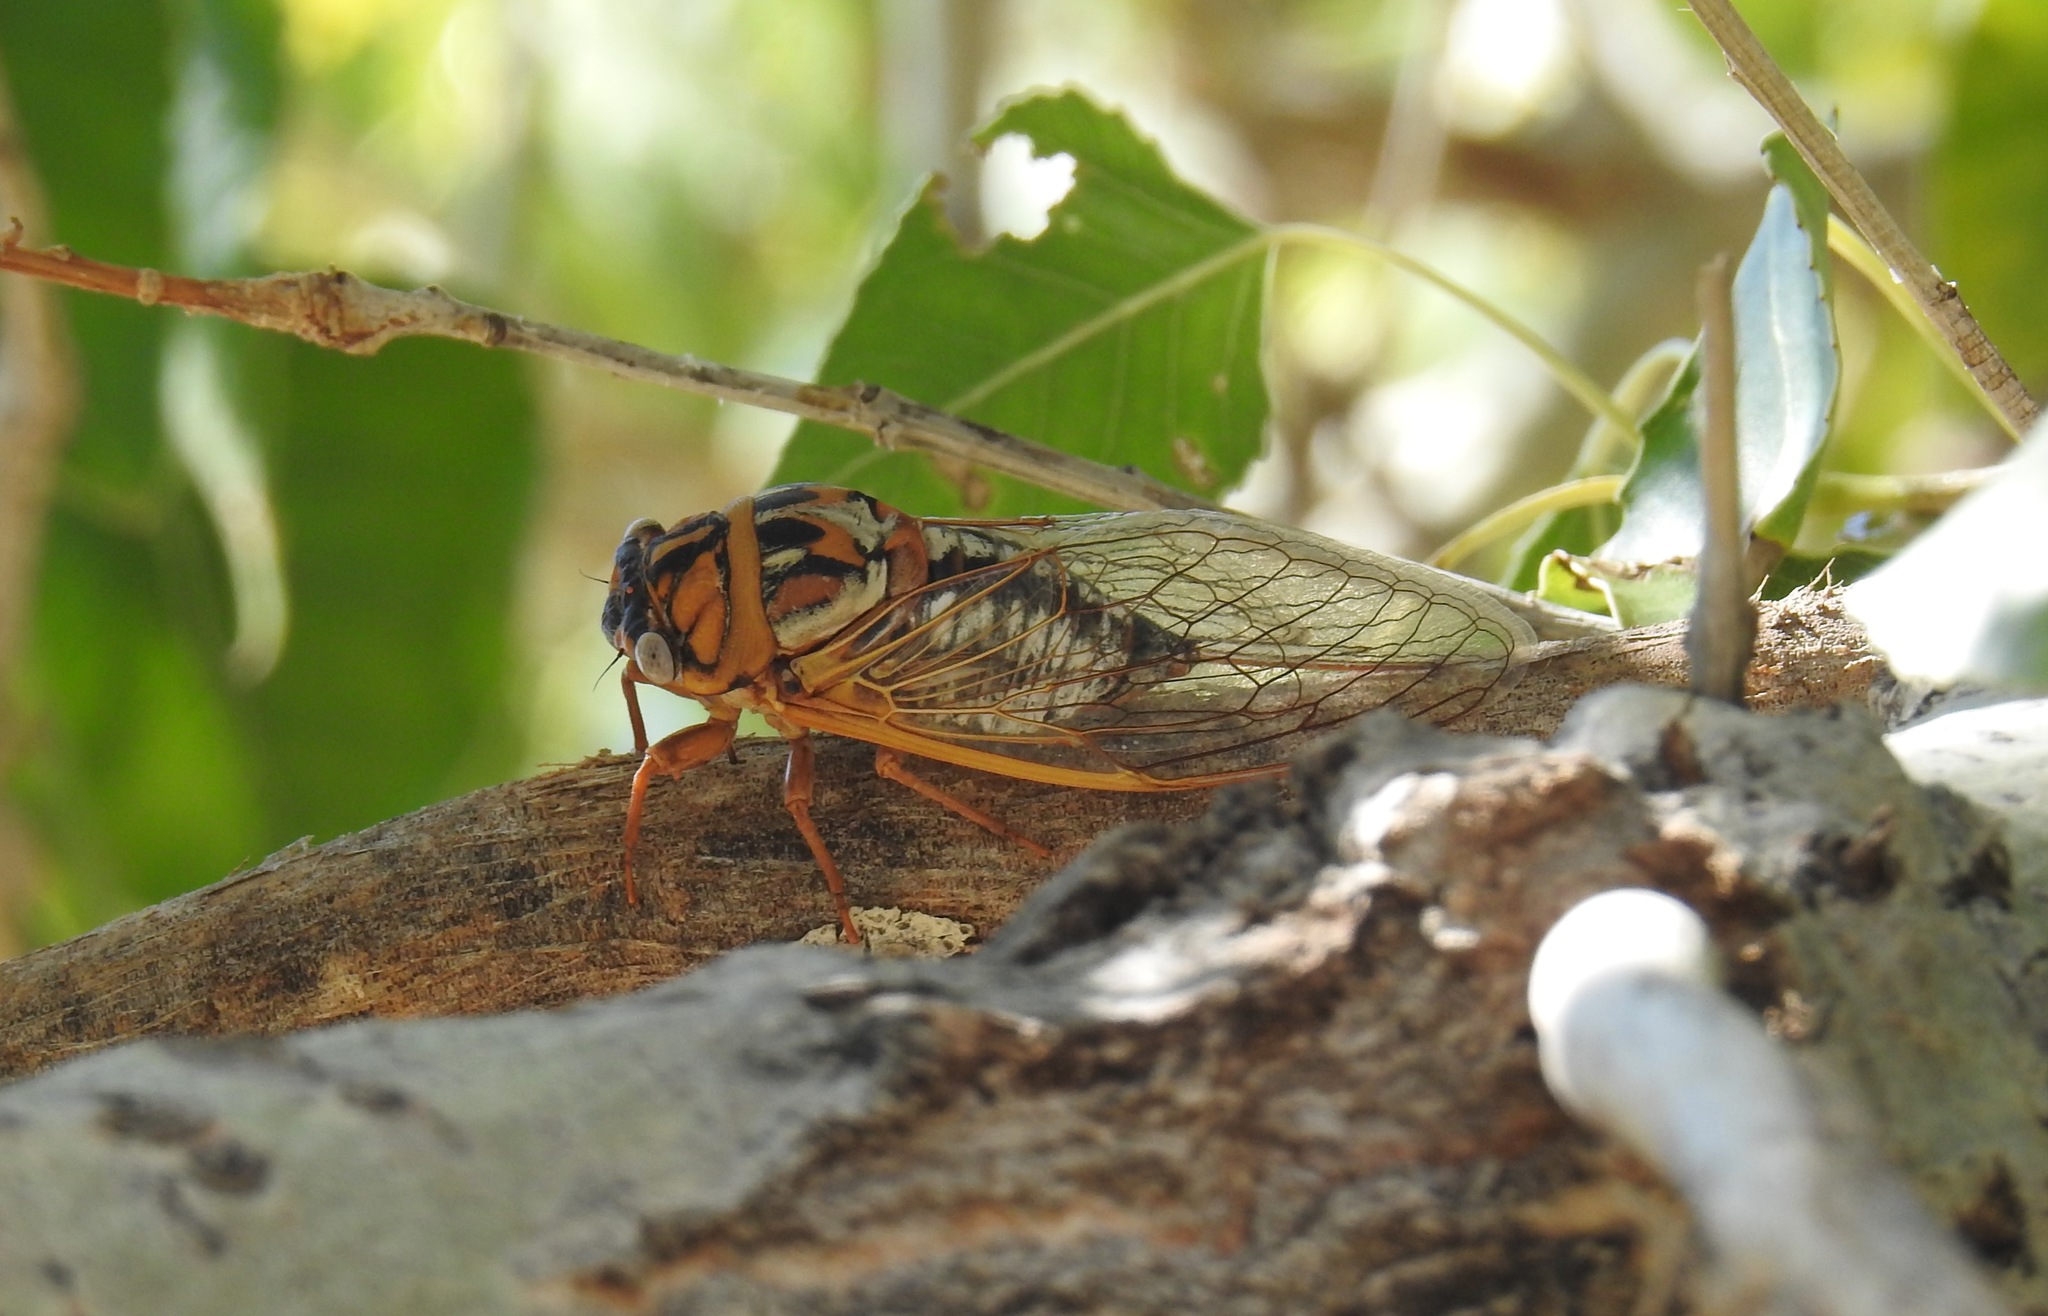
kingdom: Animalia
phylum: Arthropoda
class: Insecta
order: Hemiptera
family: Cicadidae
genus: Megatibicen
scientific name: Megatibicen dealbatus
